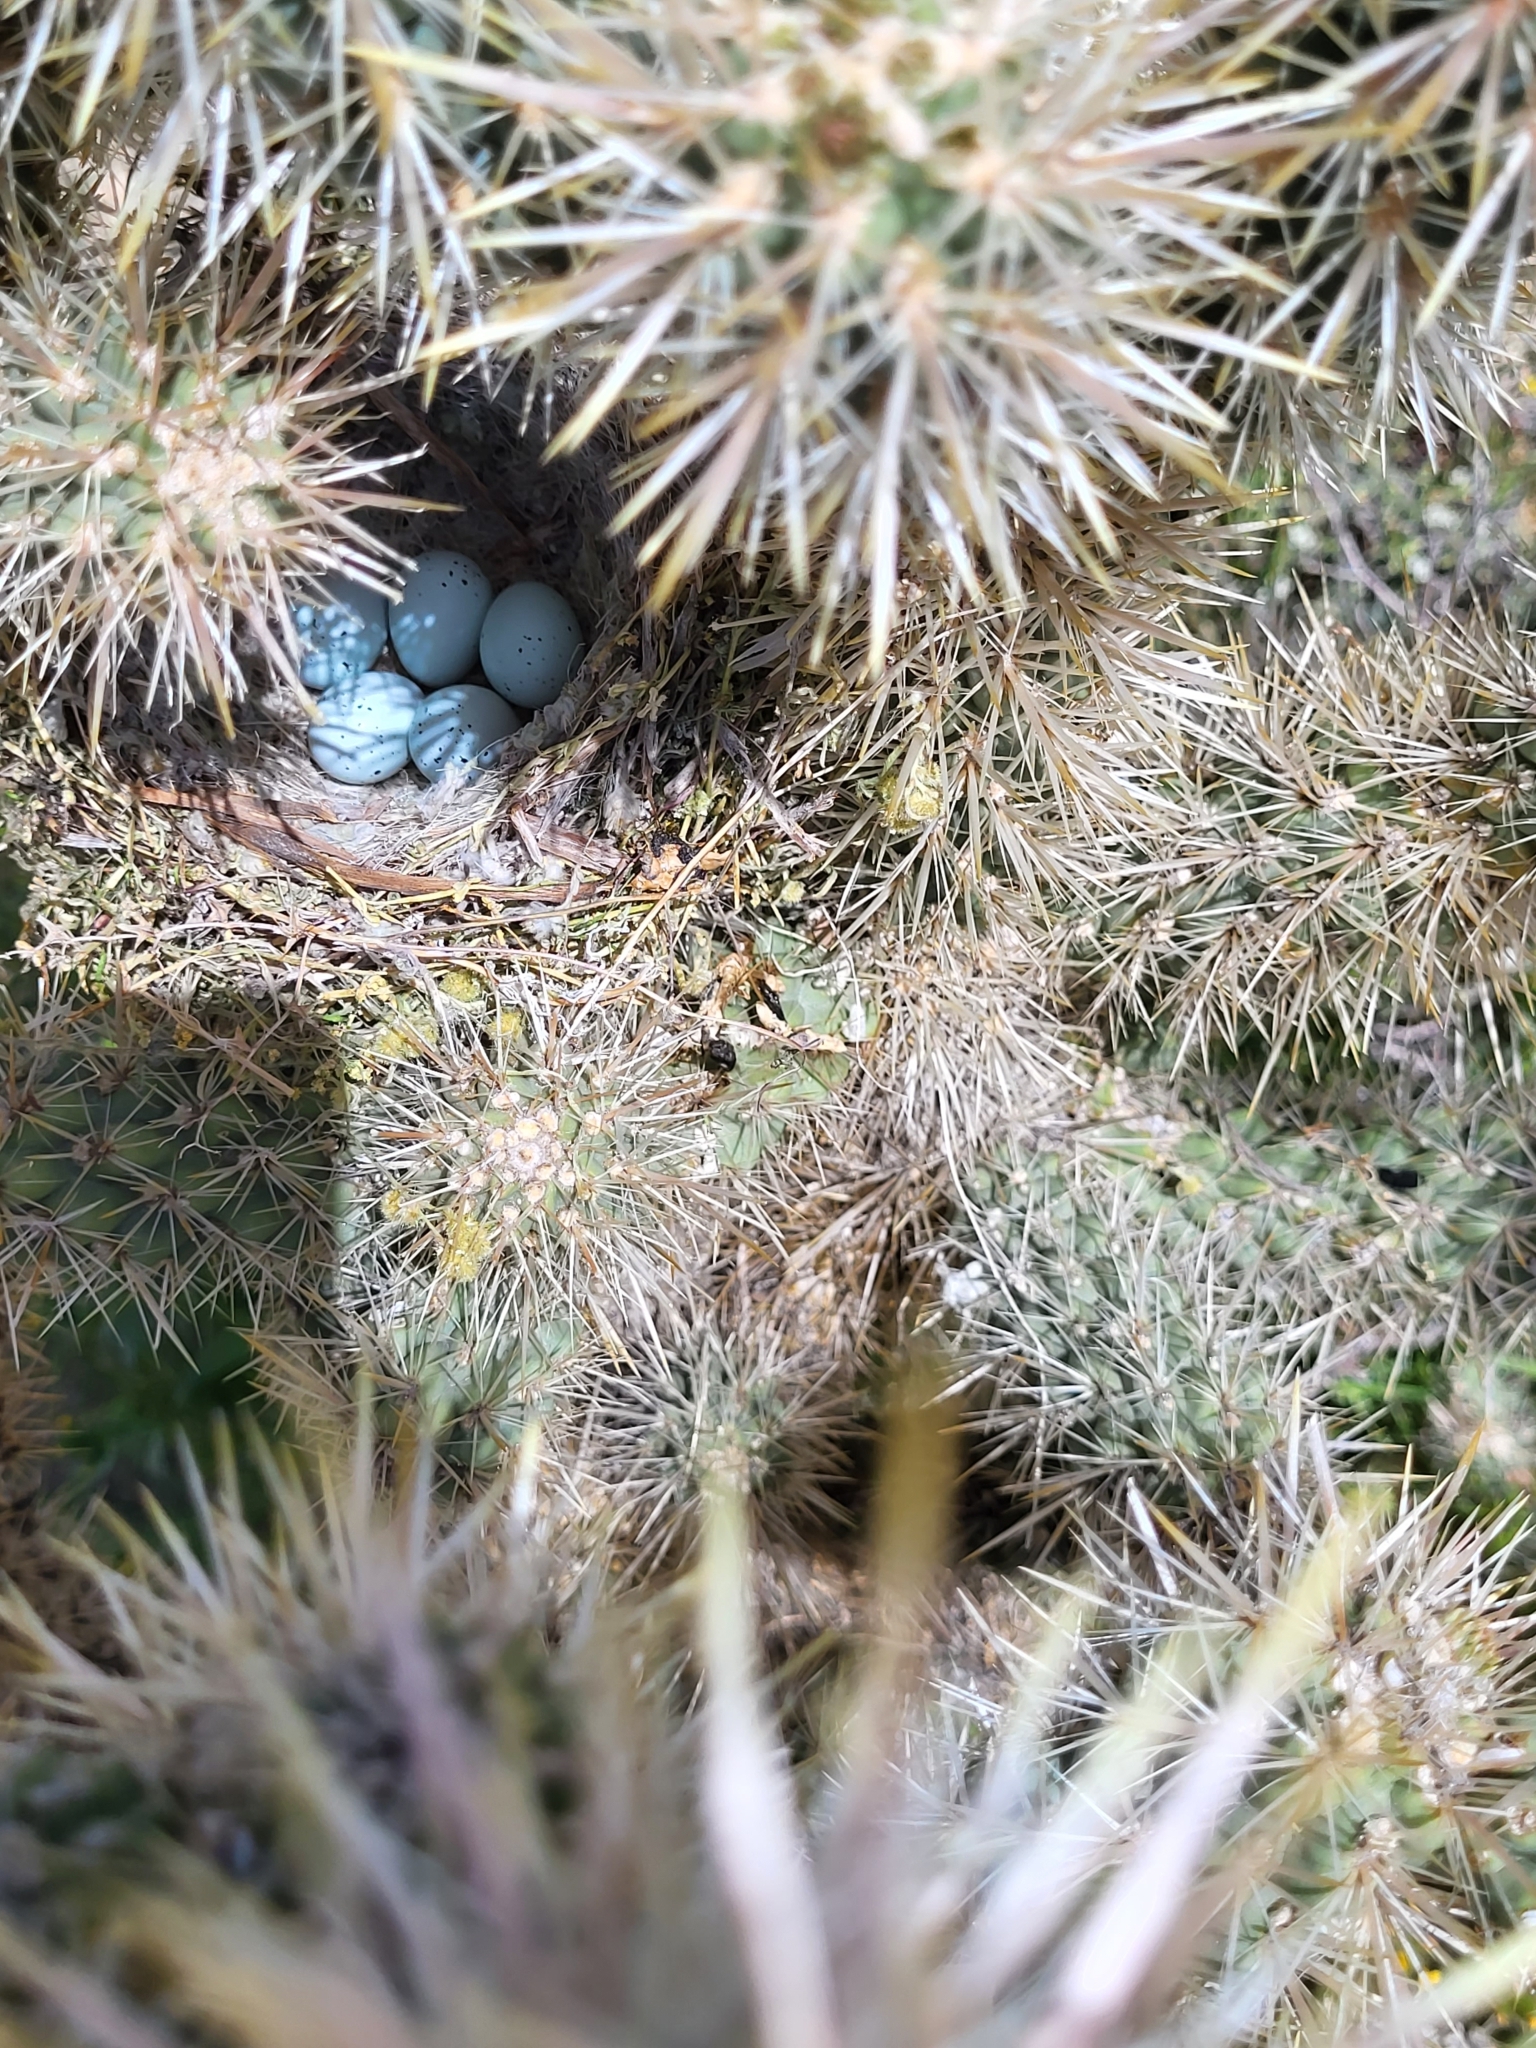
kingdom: Animalia
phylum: Chordata
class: Aves
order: Passeriformes
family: Fringillidae
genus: Haemorhous
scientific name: Haemorhous mexicanus
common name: House finch
